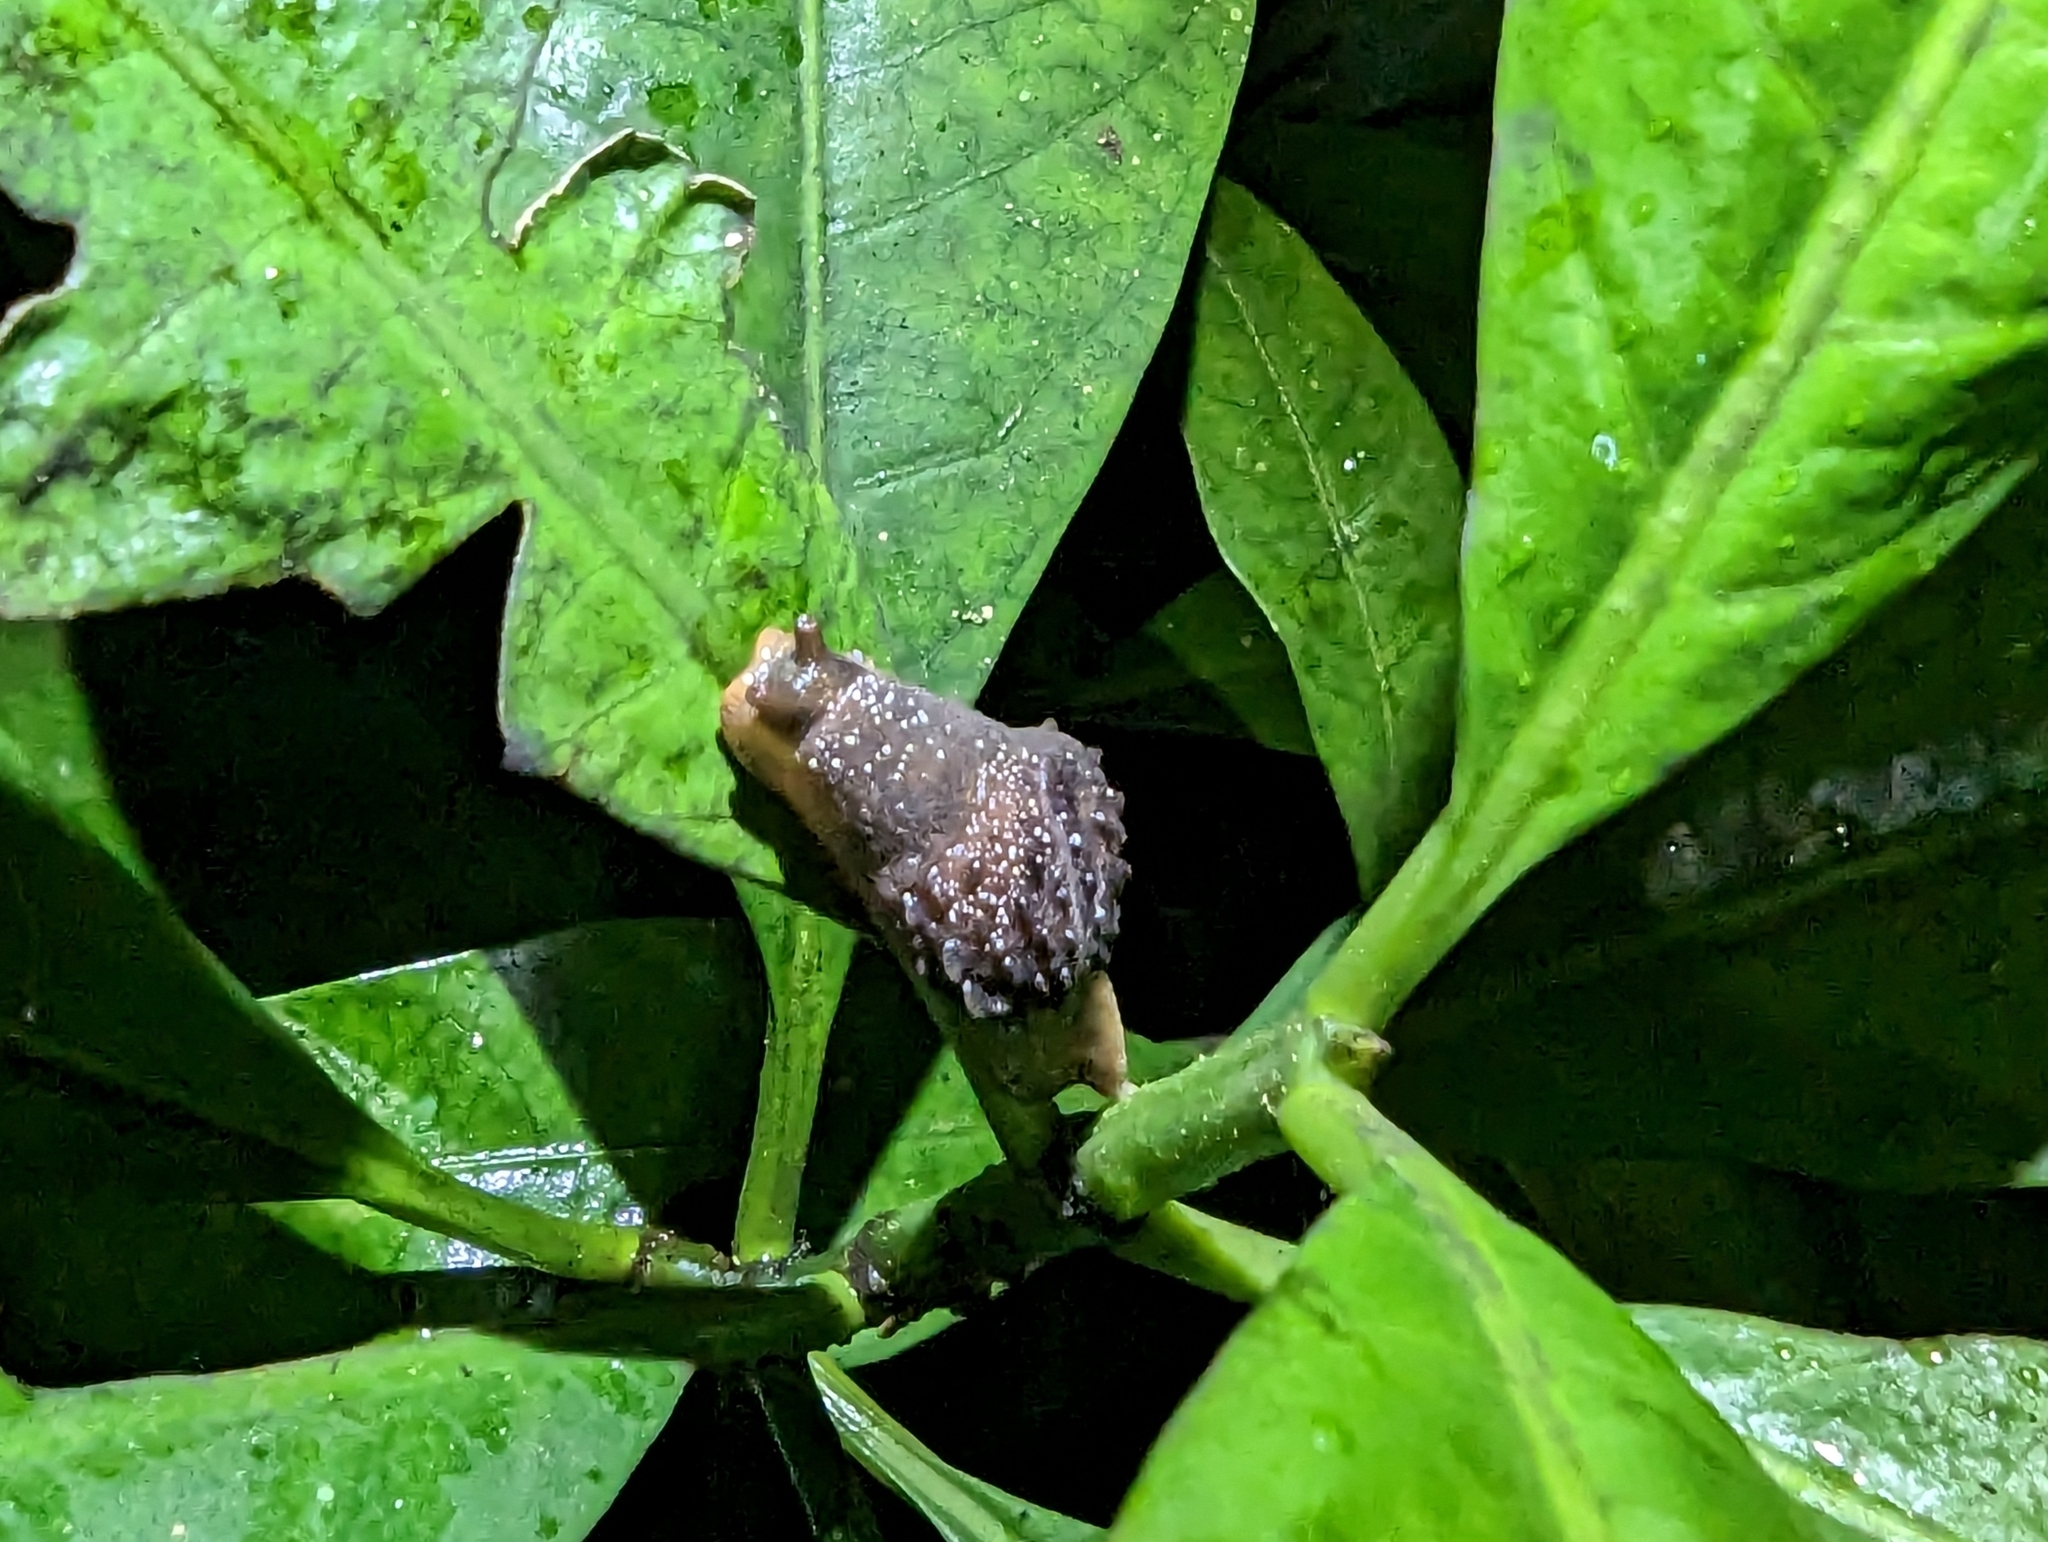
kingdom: Animalia
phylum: Mollusca
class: Gastropoda
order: Stylommatophora
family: Helicarionidae
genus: Fastosarion
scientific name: Fastosarion brazieri
